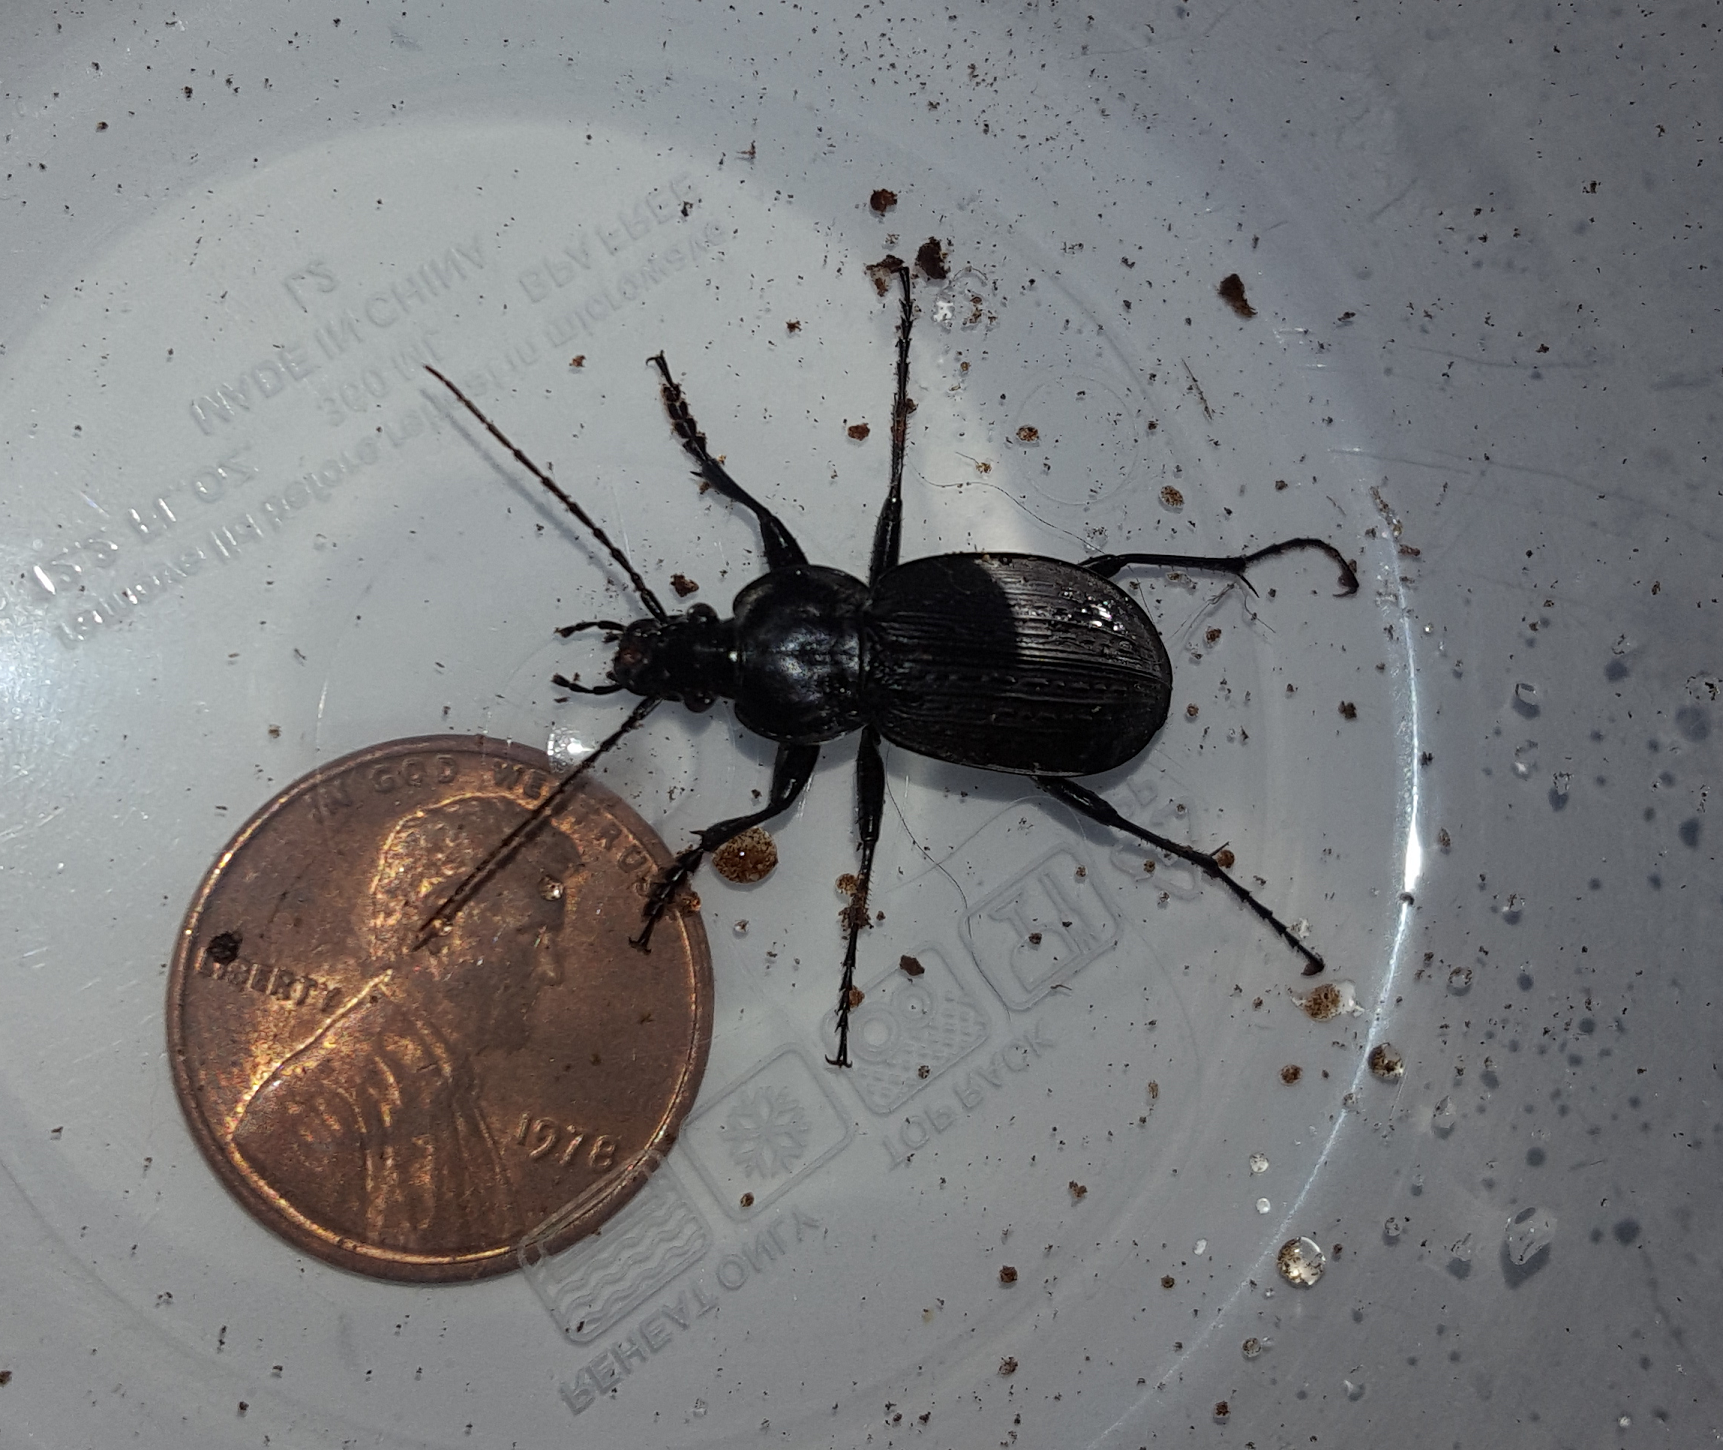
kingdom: Animalia
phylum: Arthropoda
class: Insecta
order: Coleoptera
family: Carabidae
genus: Carabus
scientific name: Carabus vinctus
